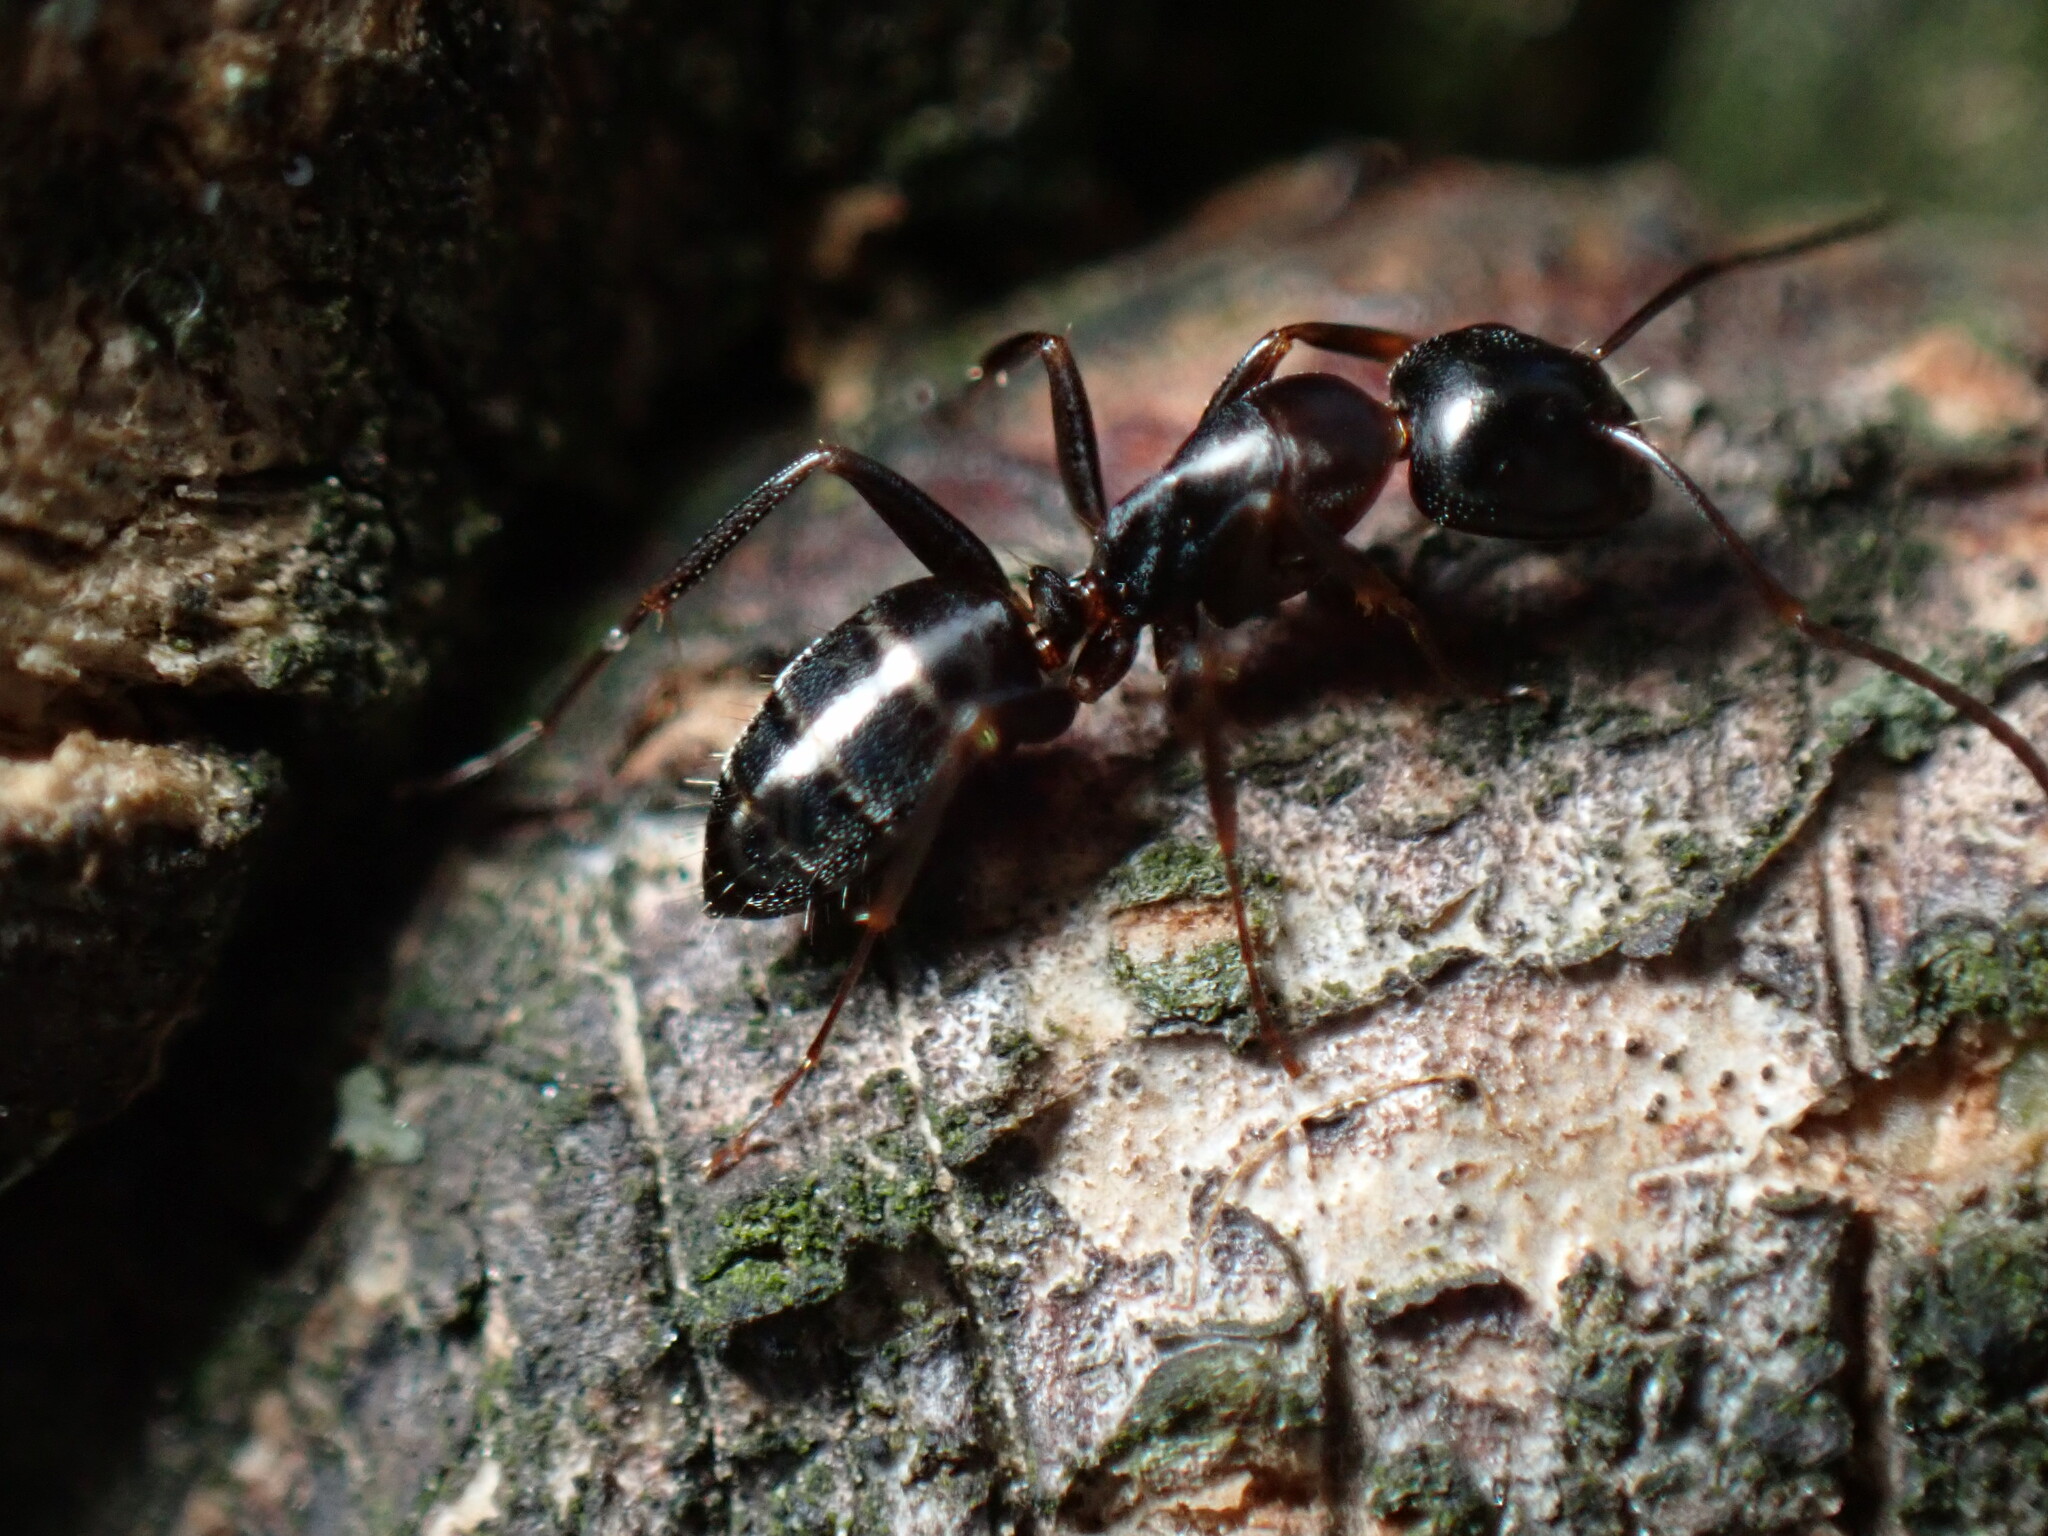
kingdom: Animalia
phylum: Arthropoda
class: Insecta
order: Hymenoptera
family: Formicidae
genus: Camponotus
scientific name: Camponotus nearcticus
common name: Smaller carpenter ant
